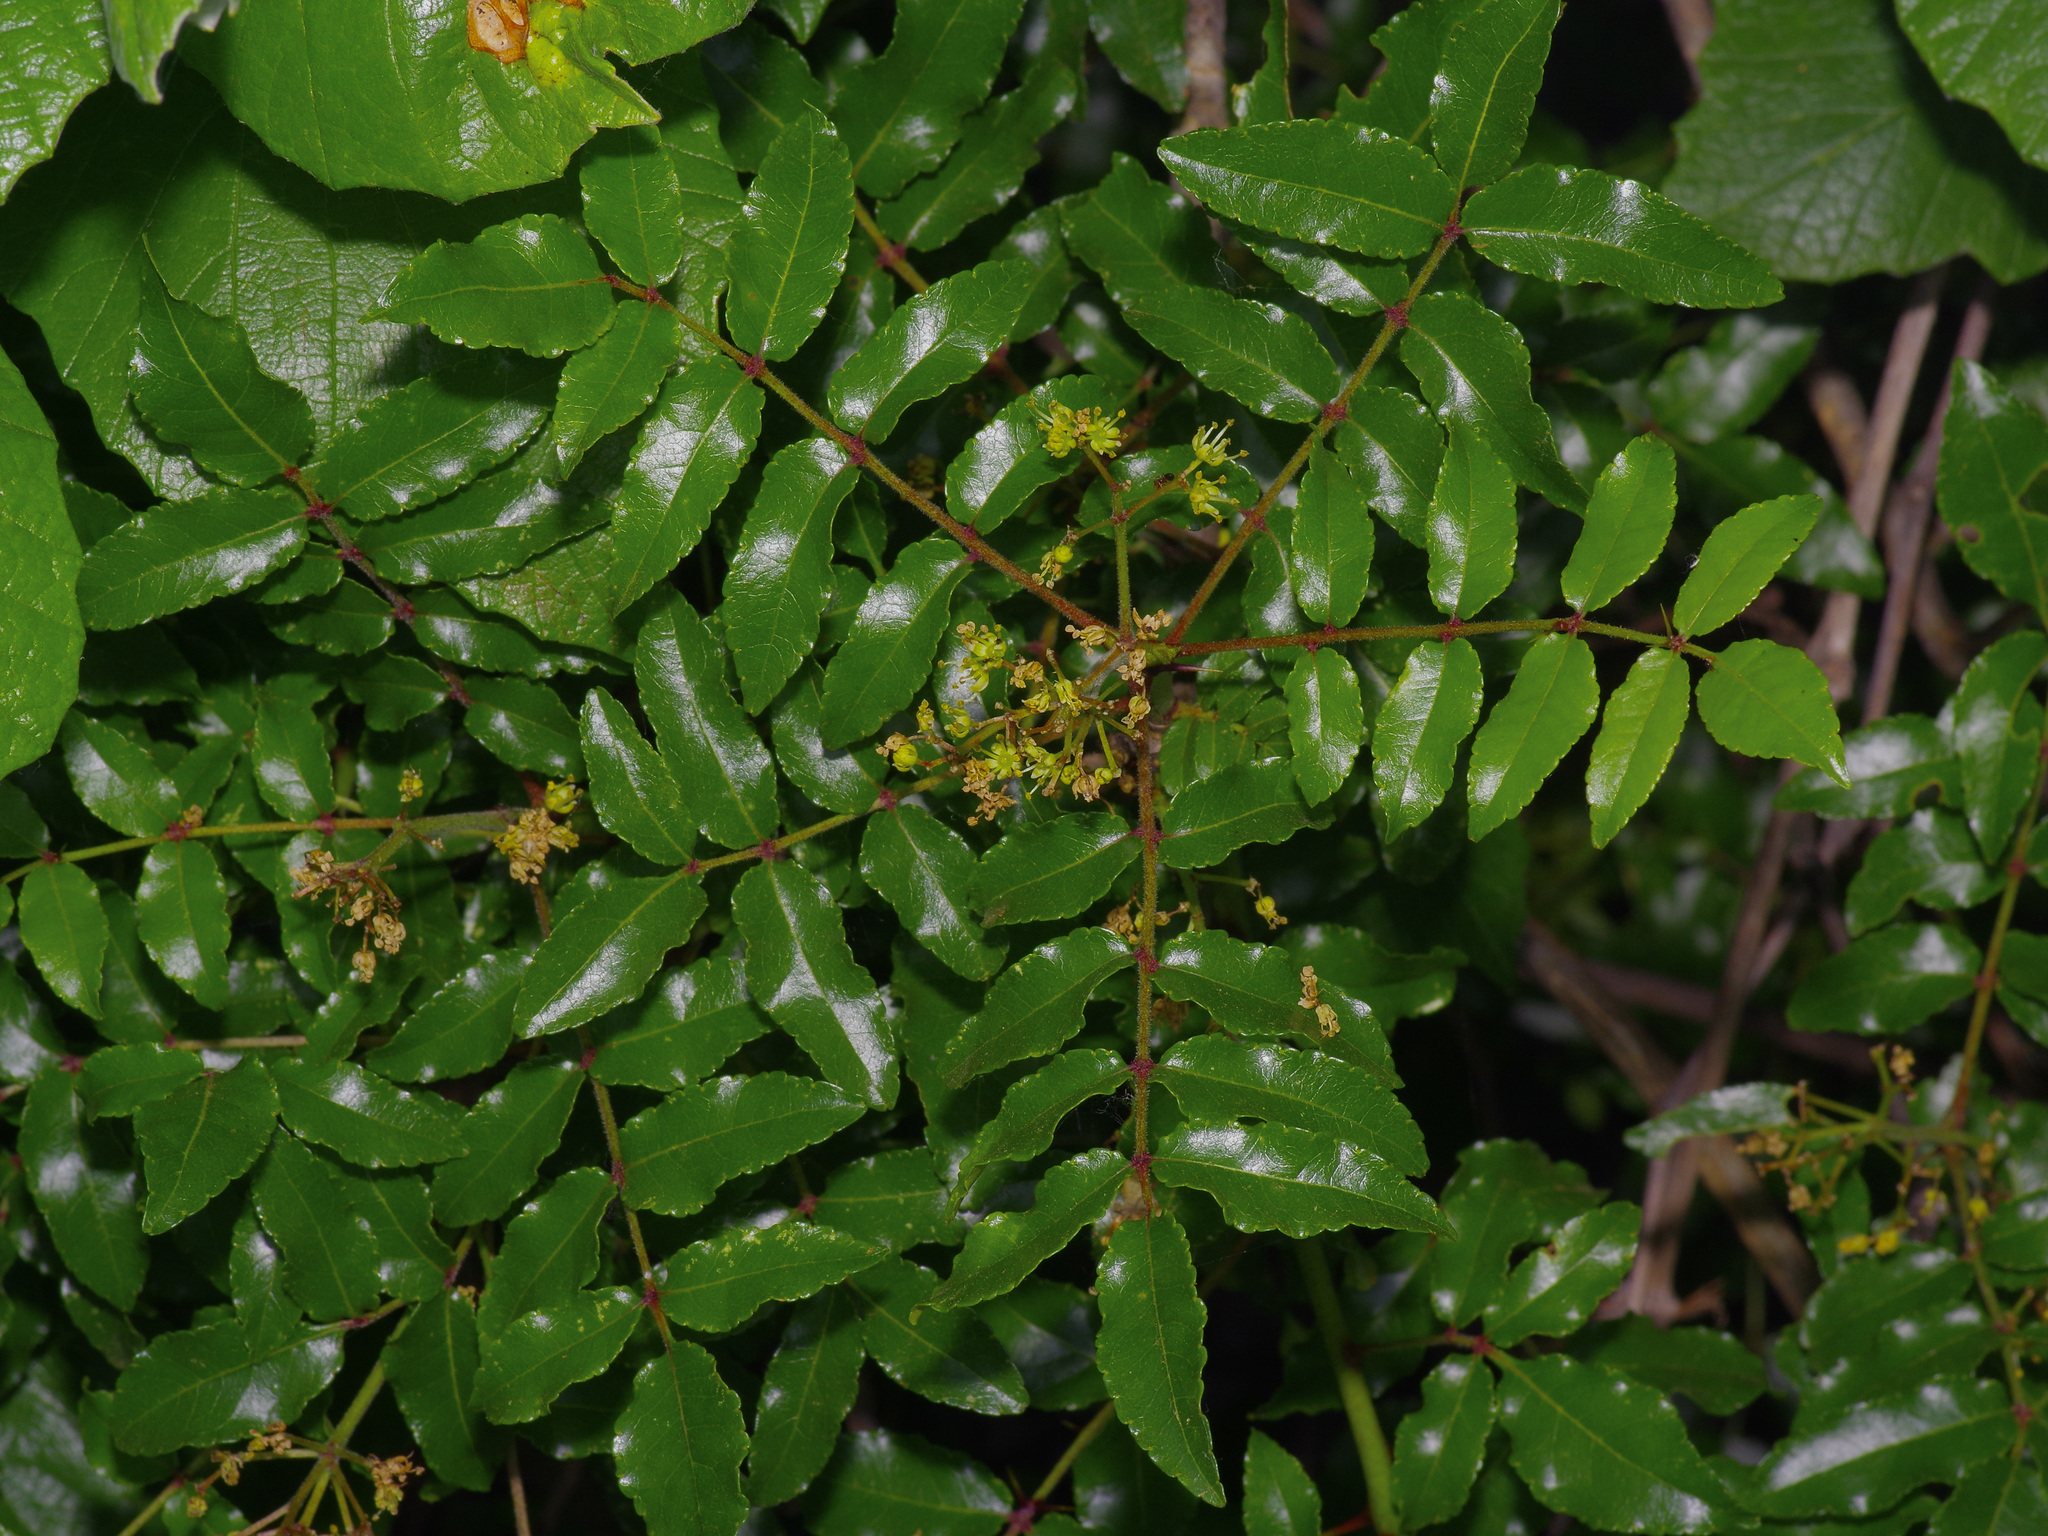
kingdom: Plantae
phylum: Tracheophyta
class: Magnoliopsida
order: Sapindales
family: Rutaceae
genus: Zanthoxylum
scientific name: Zanthoxylum clava-herculis
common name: Hercules'-club
